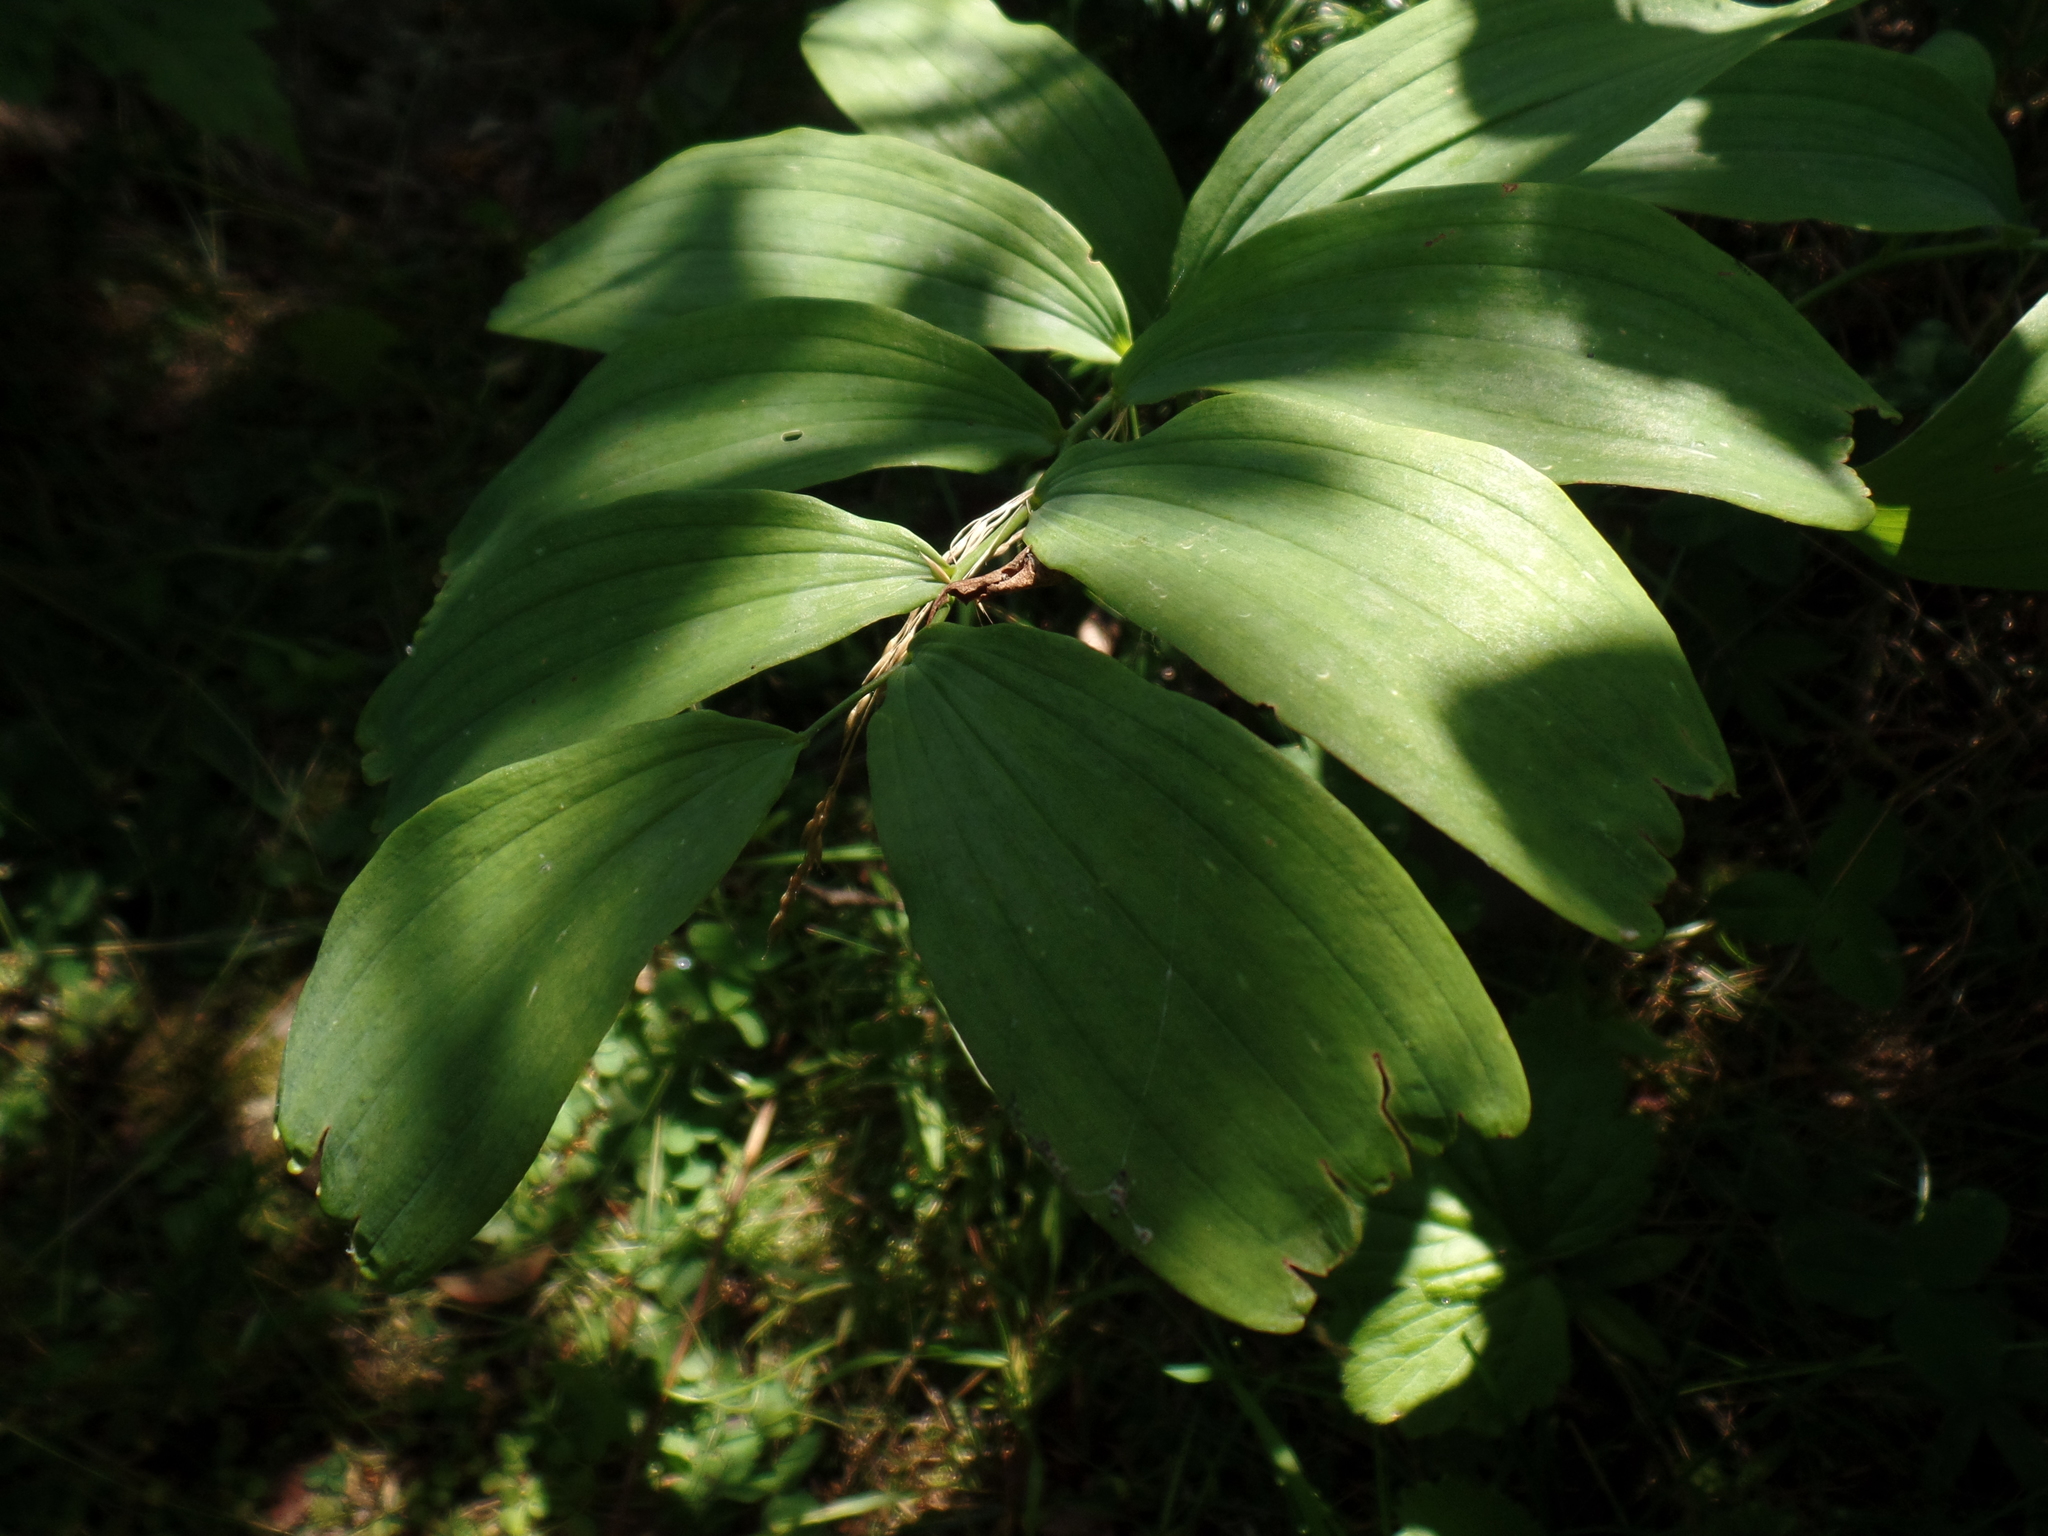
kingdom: Plantae
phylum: Tracheophyta
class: Liliopsida
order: Asparagales
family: Asparagaceae
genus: Polygonatum
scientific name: Polygonatum pubescens
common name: Downy solomon's seal
